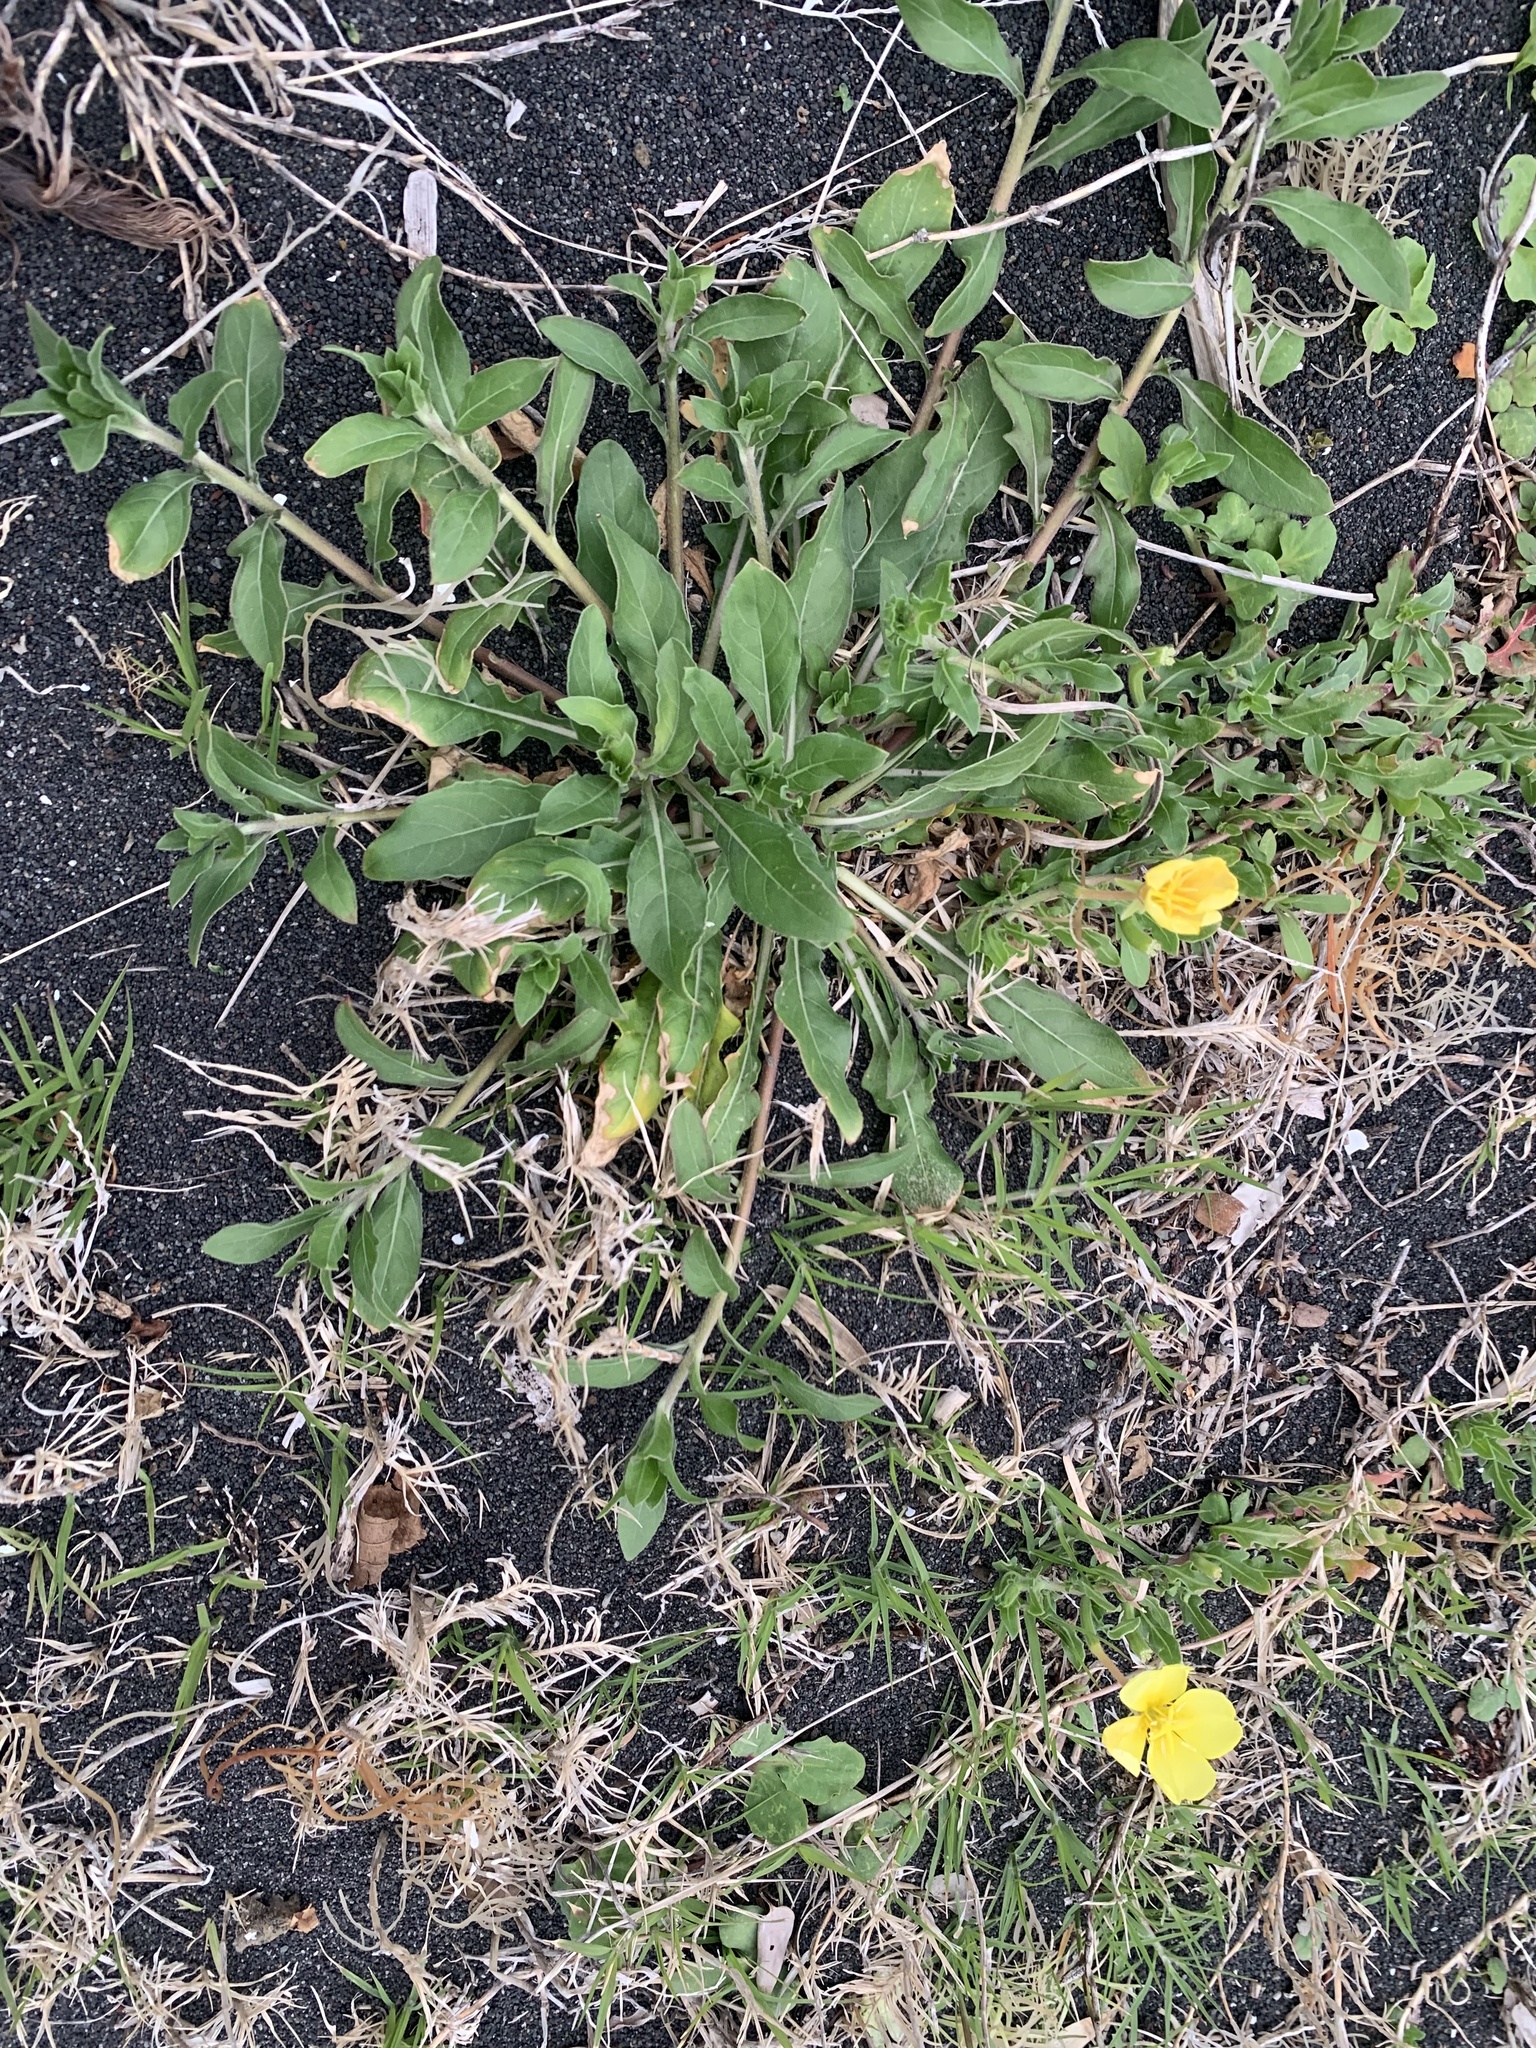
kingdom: Plantae
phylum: Tracheophyta
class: Magnoliopsida
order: Myrtales
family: Onagraceae
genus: Oenothera
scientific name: Oenothera laciniata
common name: Cut-leaved evening-primrose
